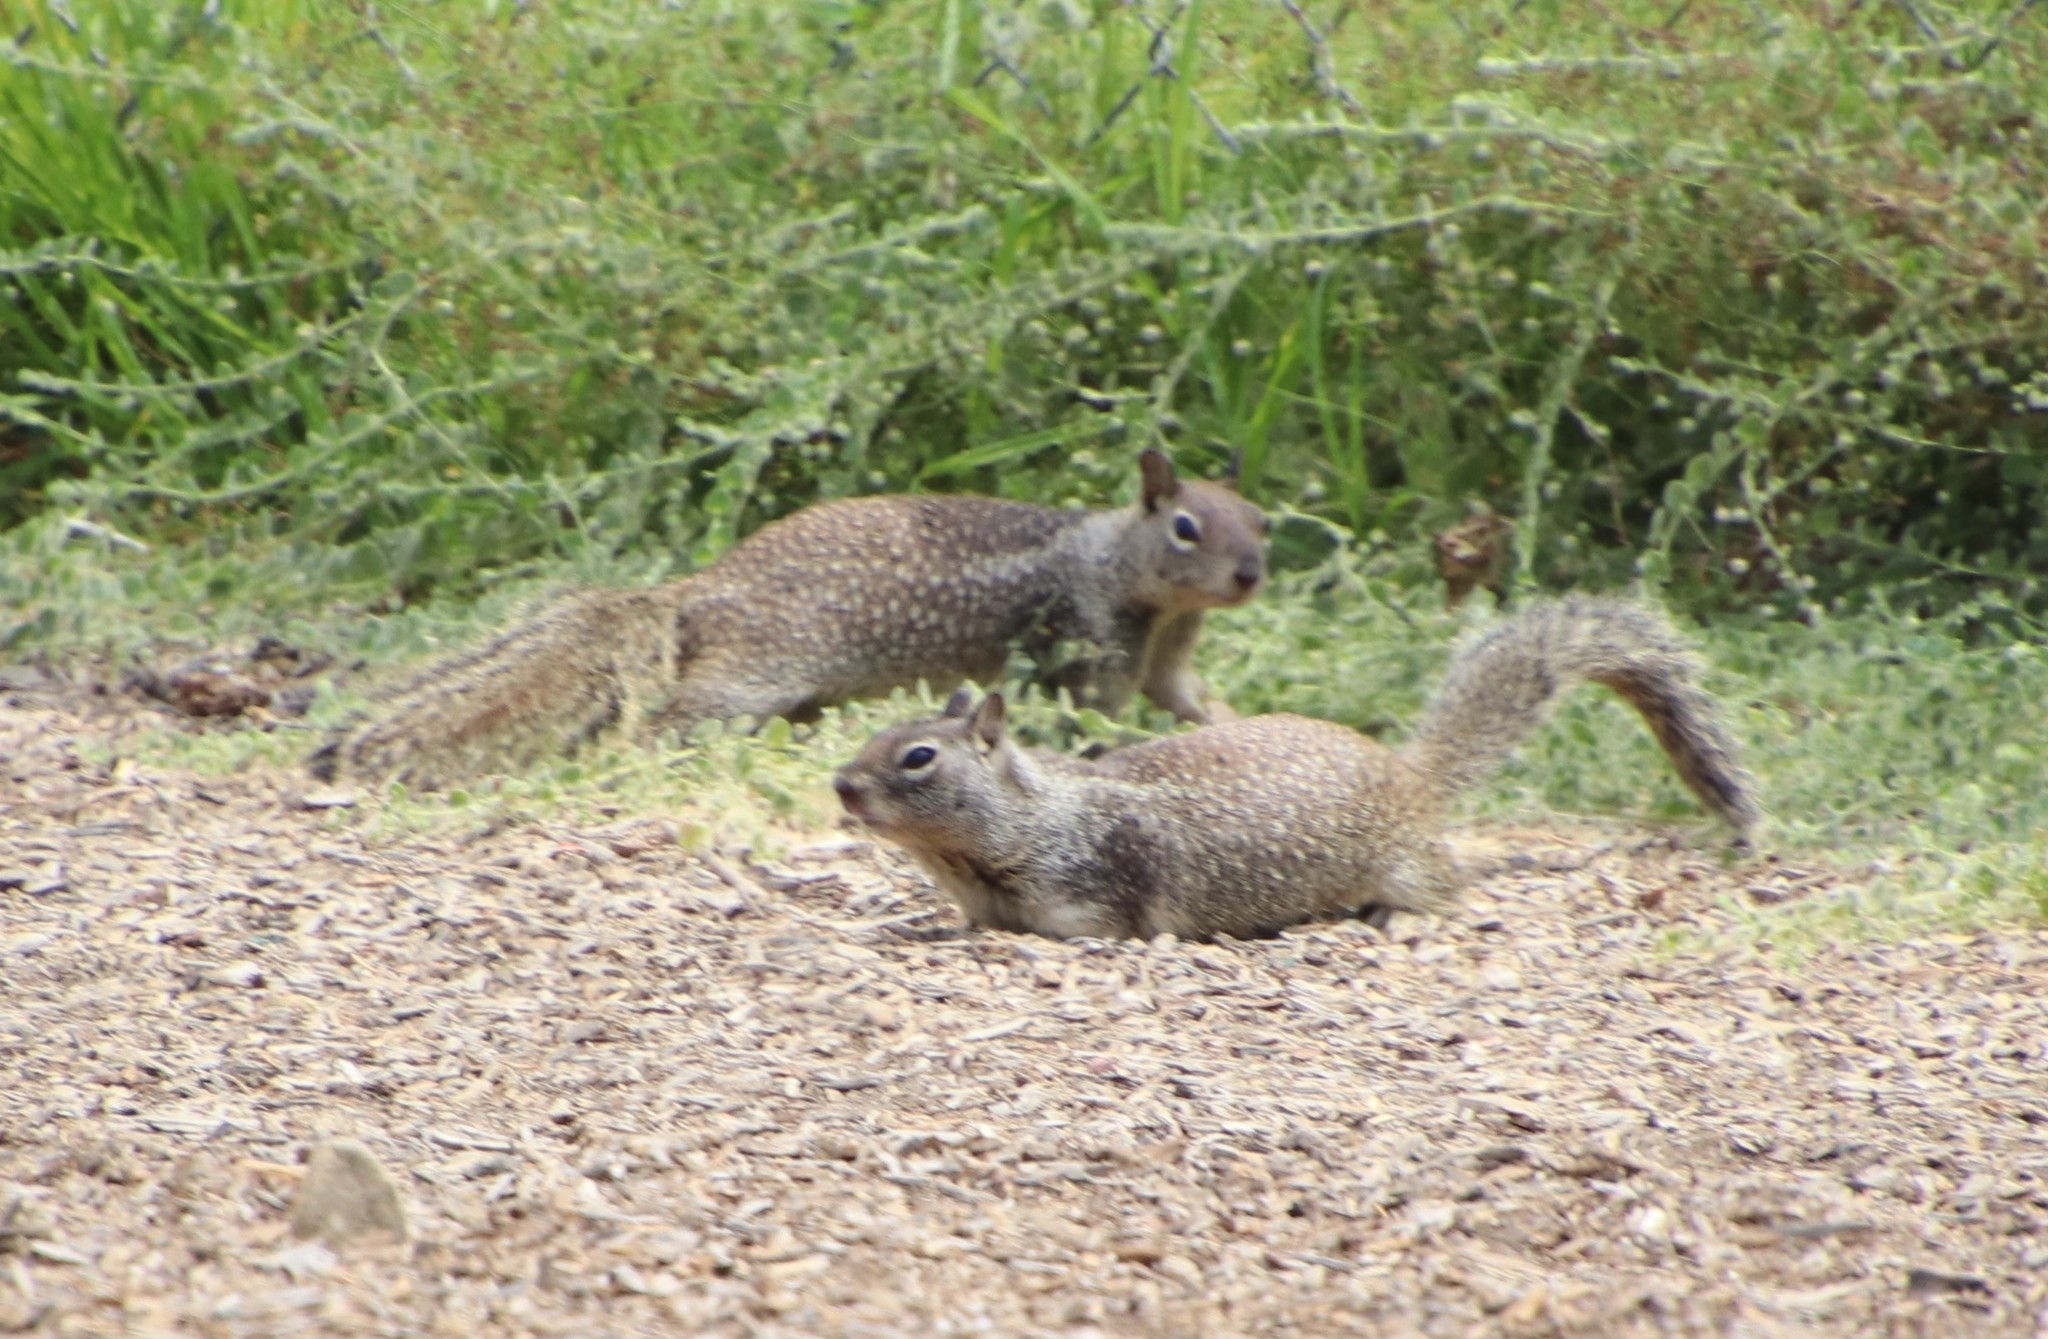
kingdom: Animalia
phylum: Chordata
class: Mammalia
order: Rodentia
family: Sciuridae
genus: Otospermophilus
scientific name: Otospermophilus beecheyi
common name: California ground squirrel
